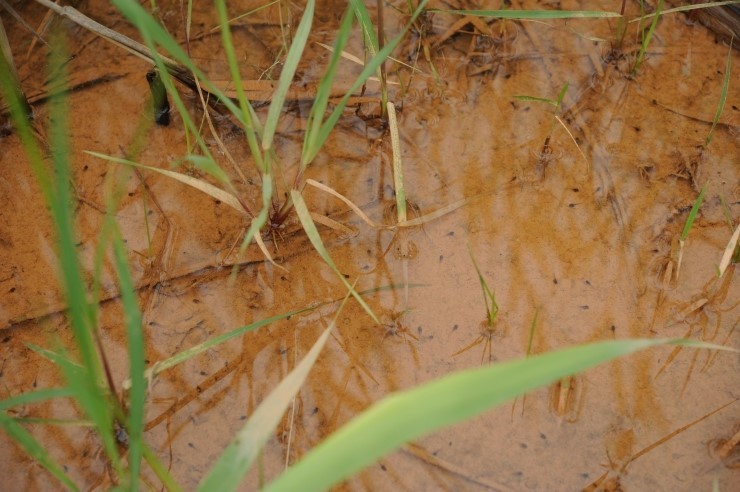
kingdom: Animalia
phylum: Chordata
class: Amphibia
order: Anura
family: Hylidae
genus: Dryophytes
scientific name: Dryophytes japonicus
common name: Japanese treefrog
